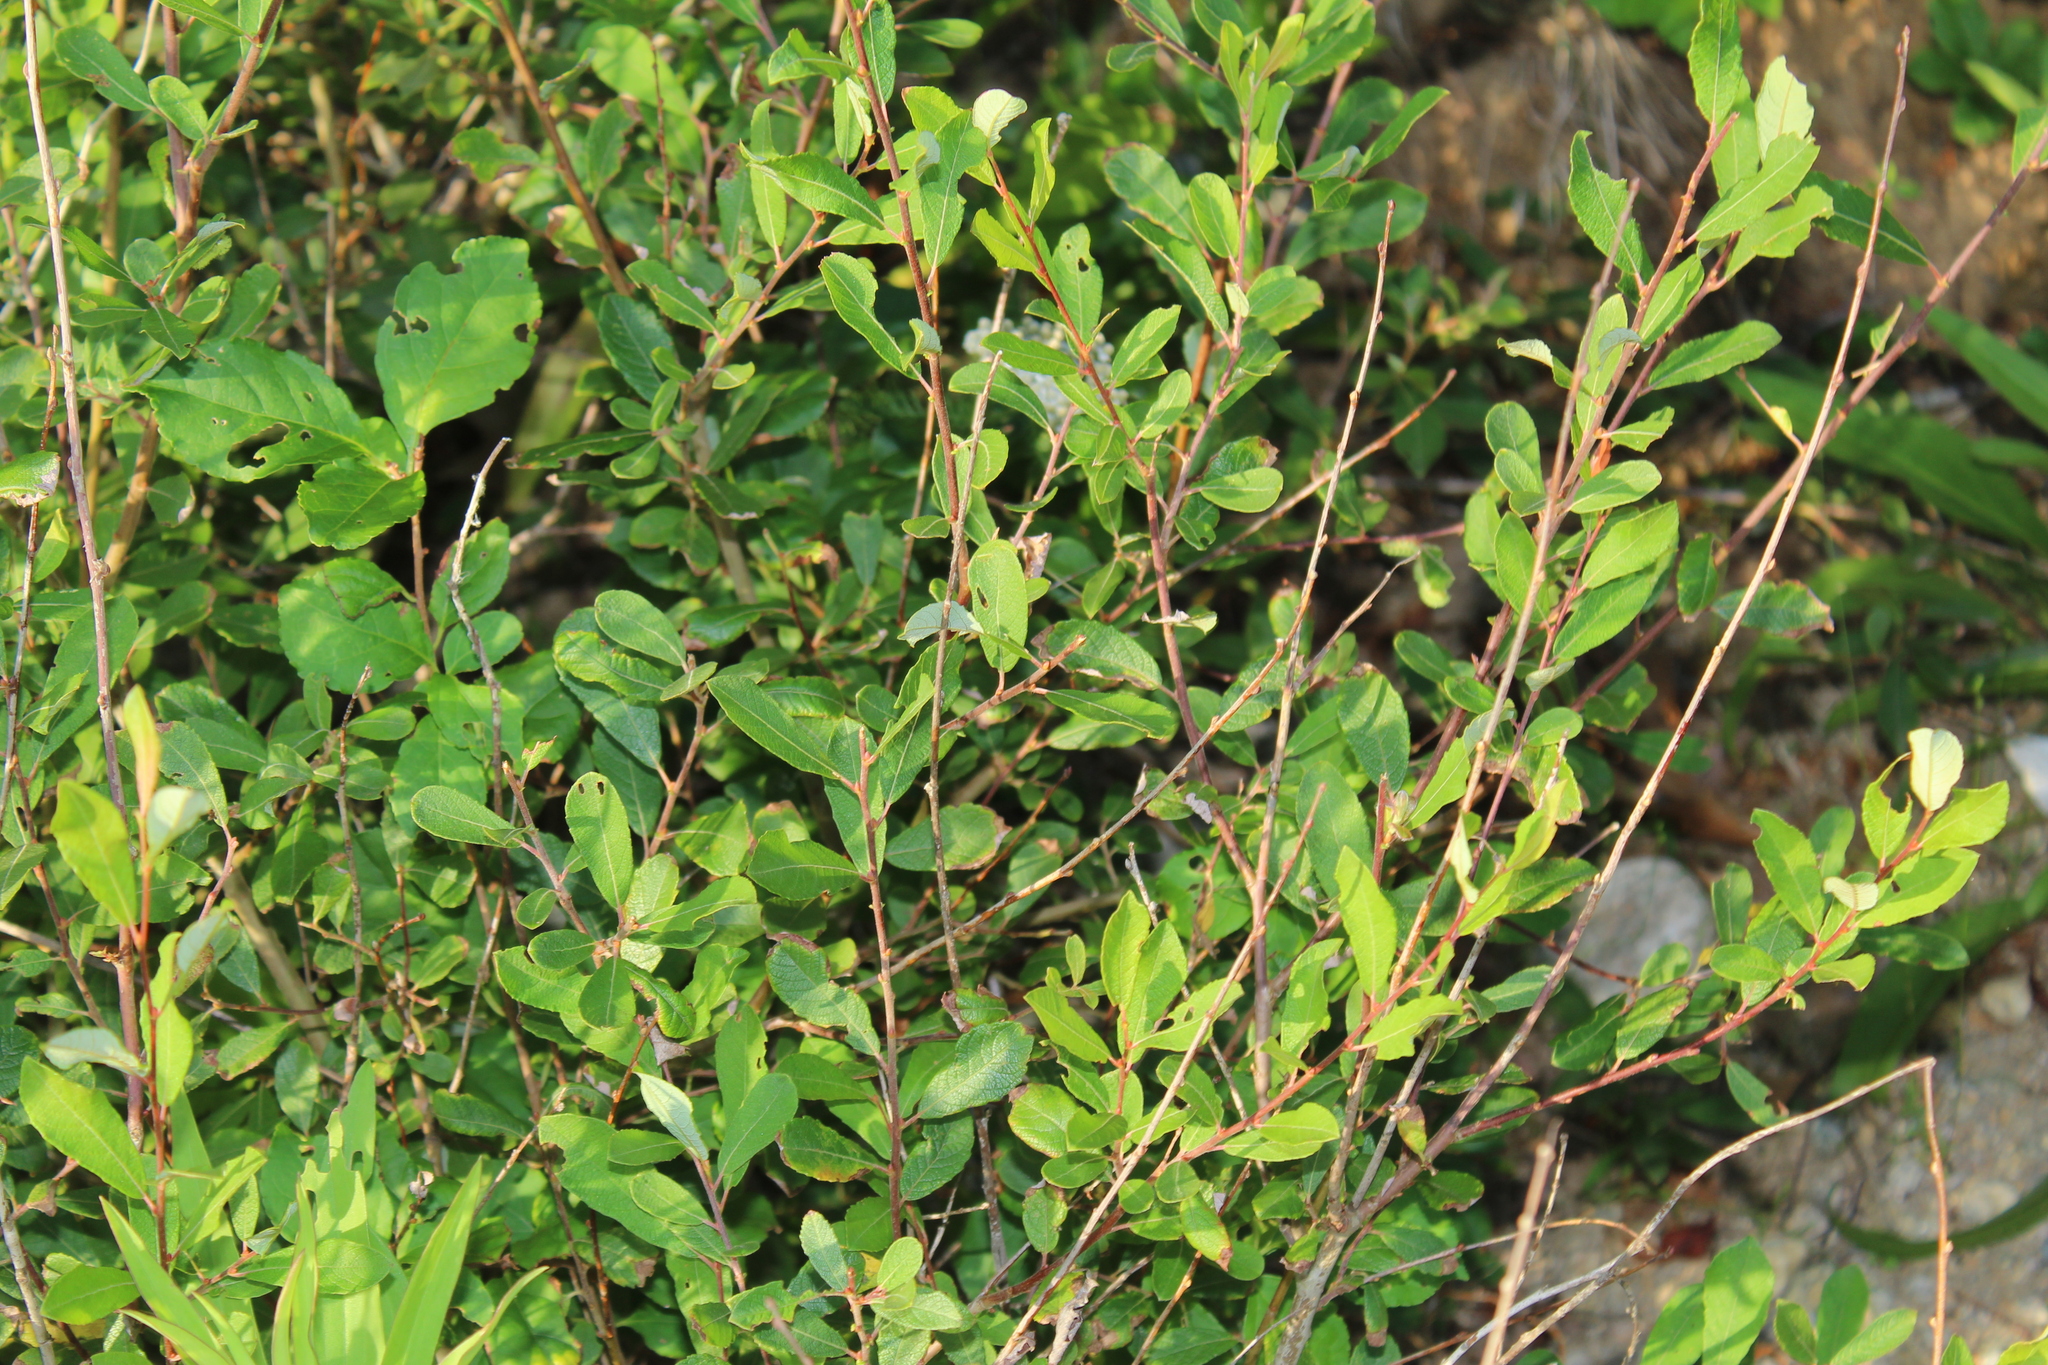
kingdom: Plantae
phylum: Tracheophyta
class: Magnoliopsida
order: Malpighiales
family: Salicaceae
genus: Salix
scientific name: Salix atrocinerea
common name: Rusty willow
